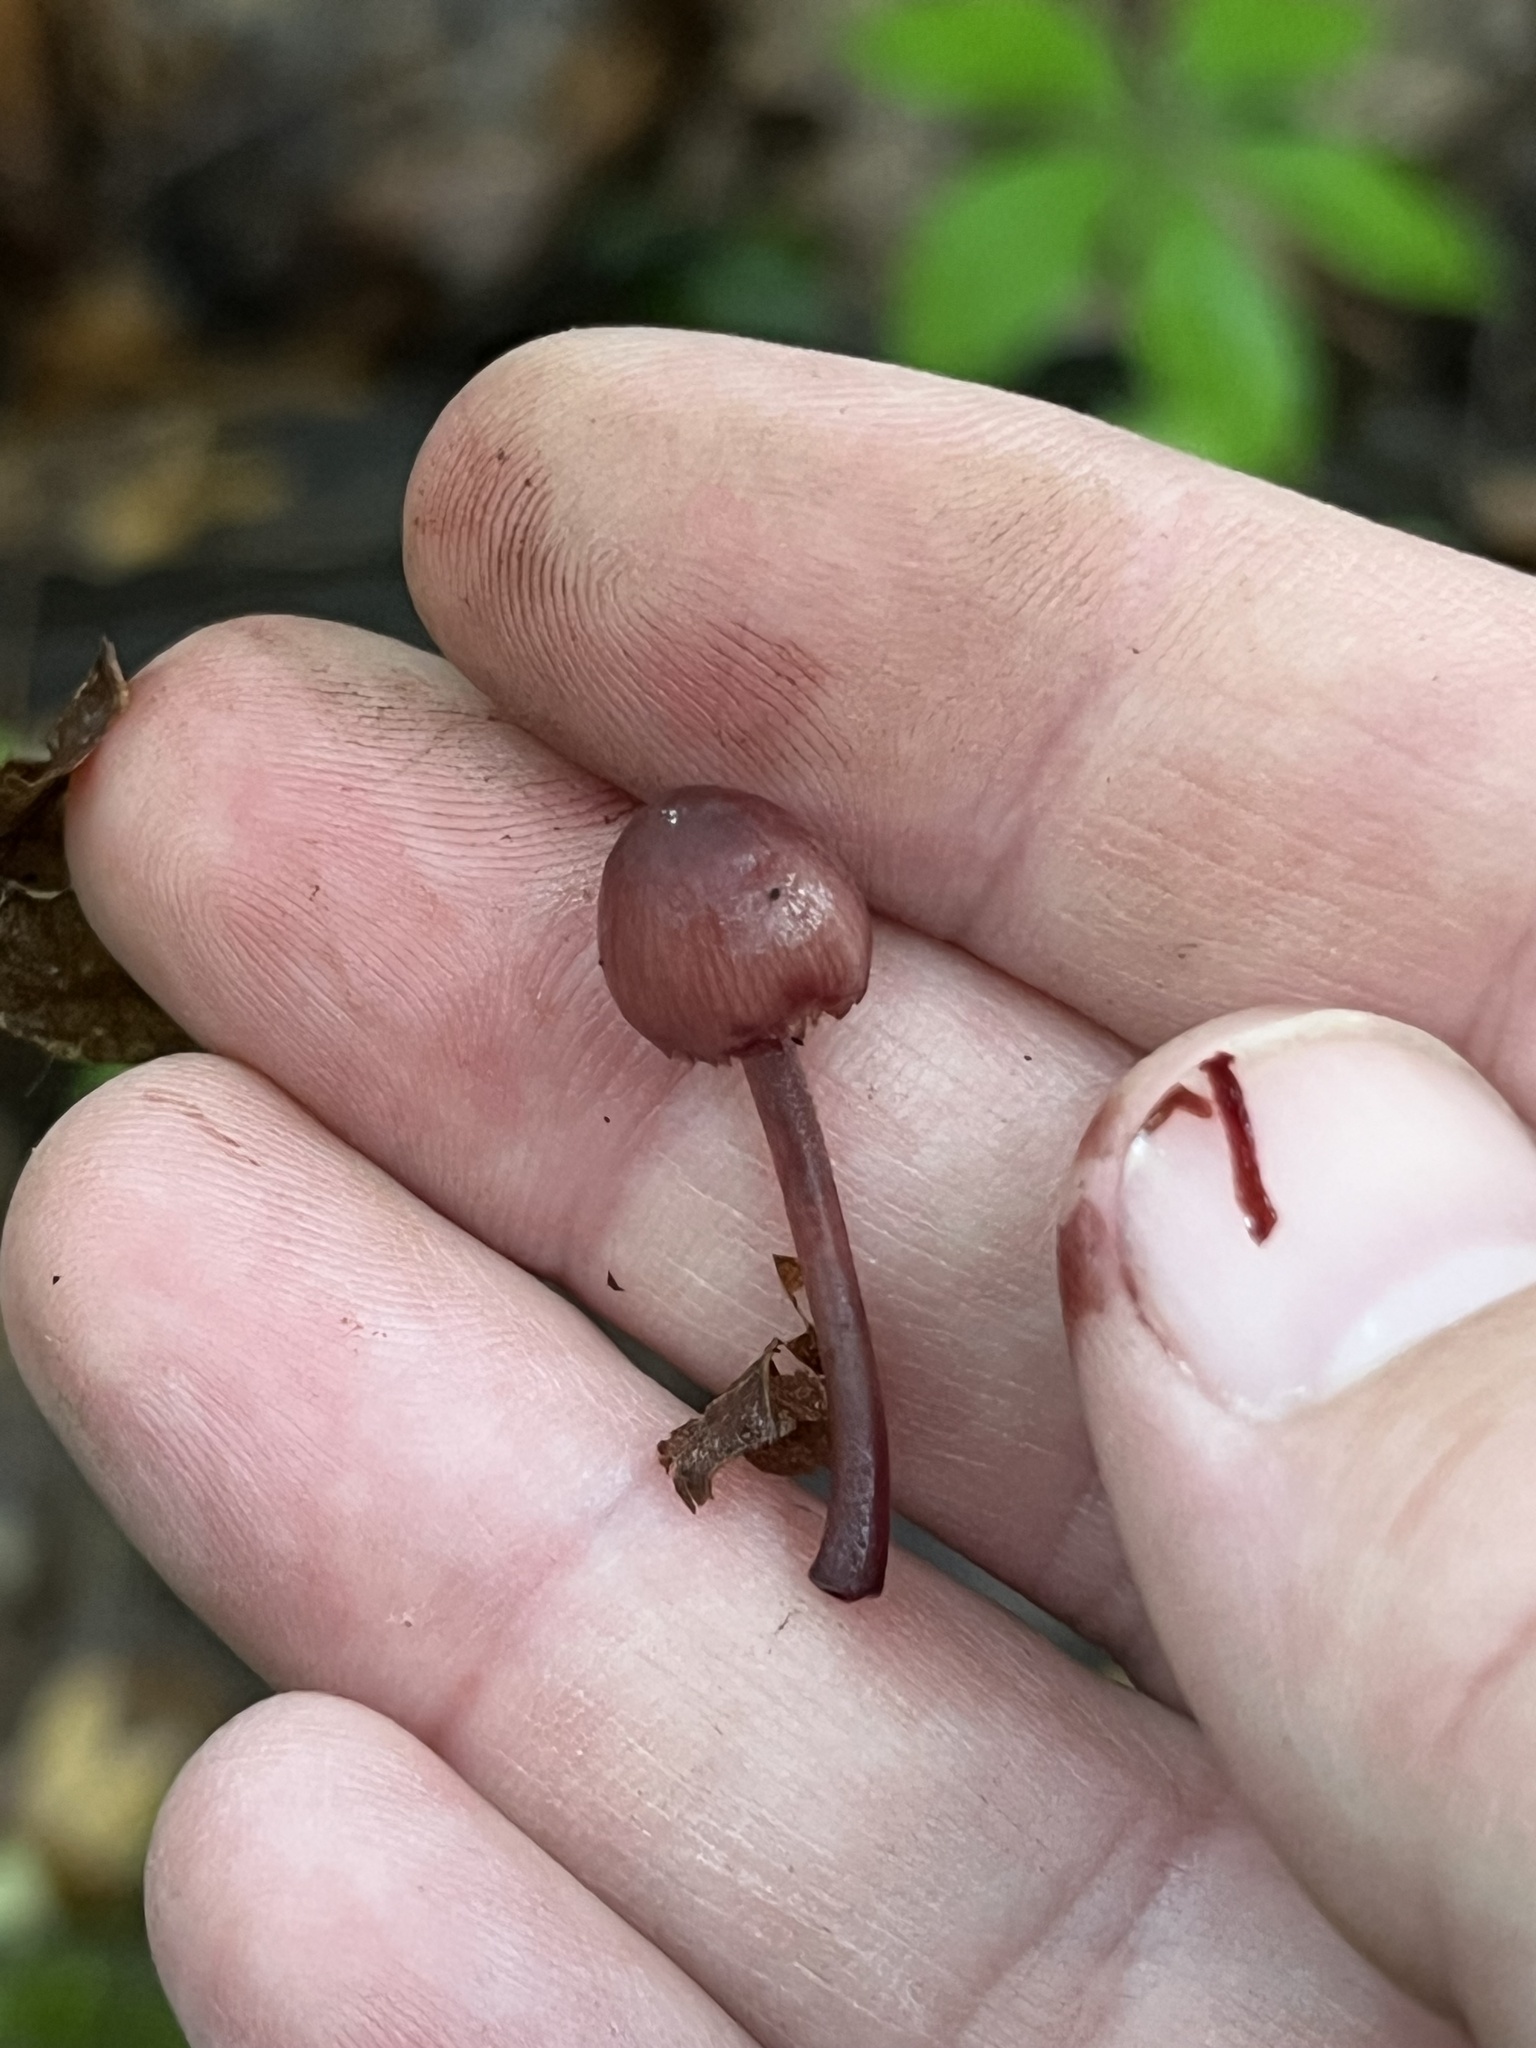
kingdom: Fungi
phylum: Basidiomycota
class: Agaricomycetes
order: Agaricales
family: Mycenaceae
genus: Mycena
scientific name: Mycena haematopus
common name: Burgundydrop bonnet
